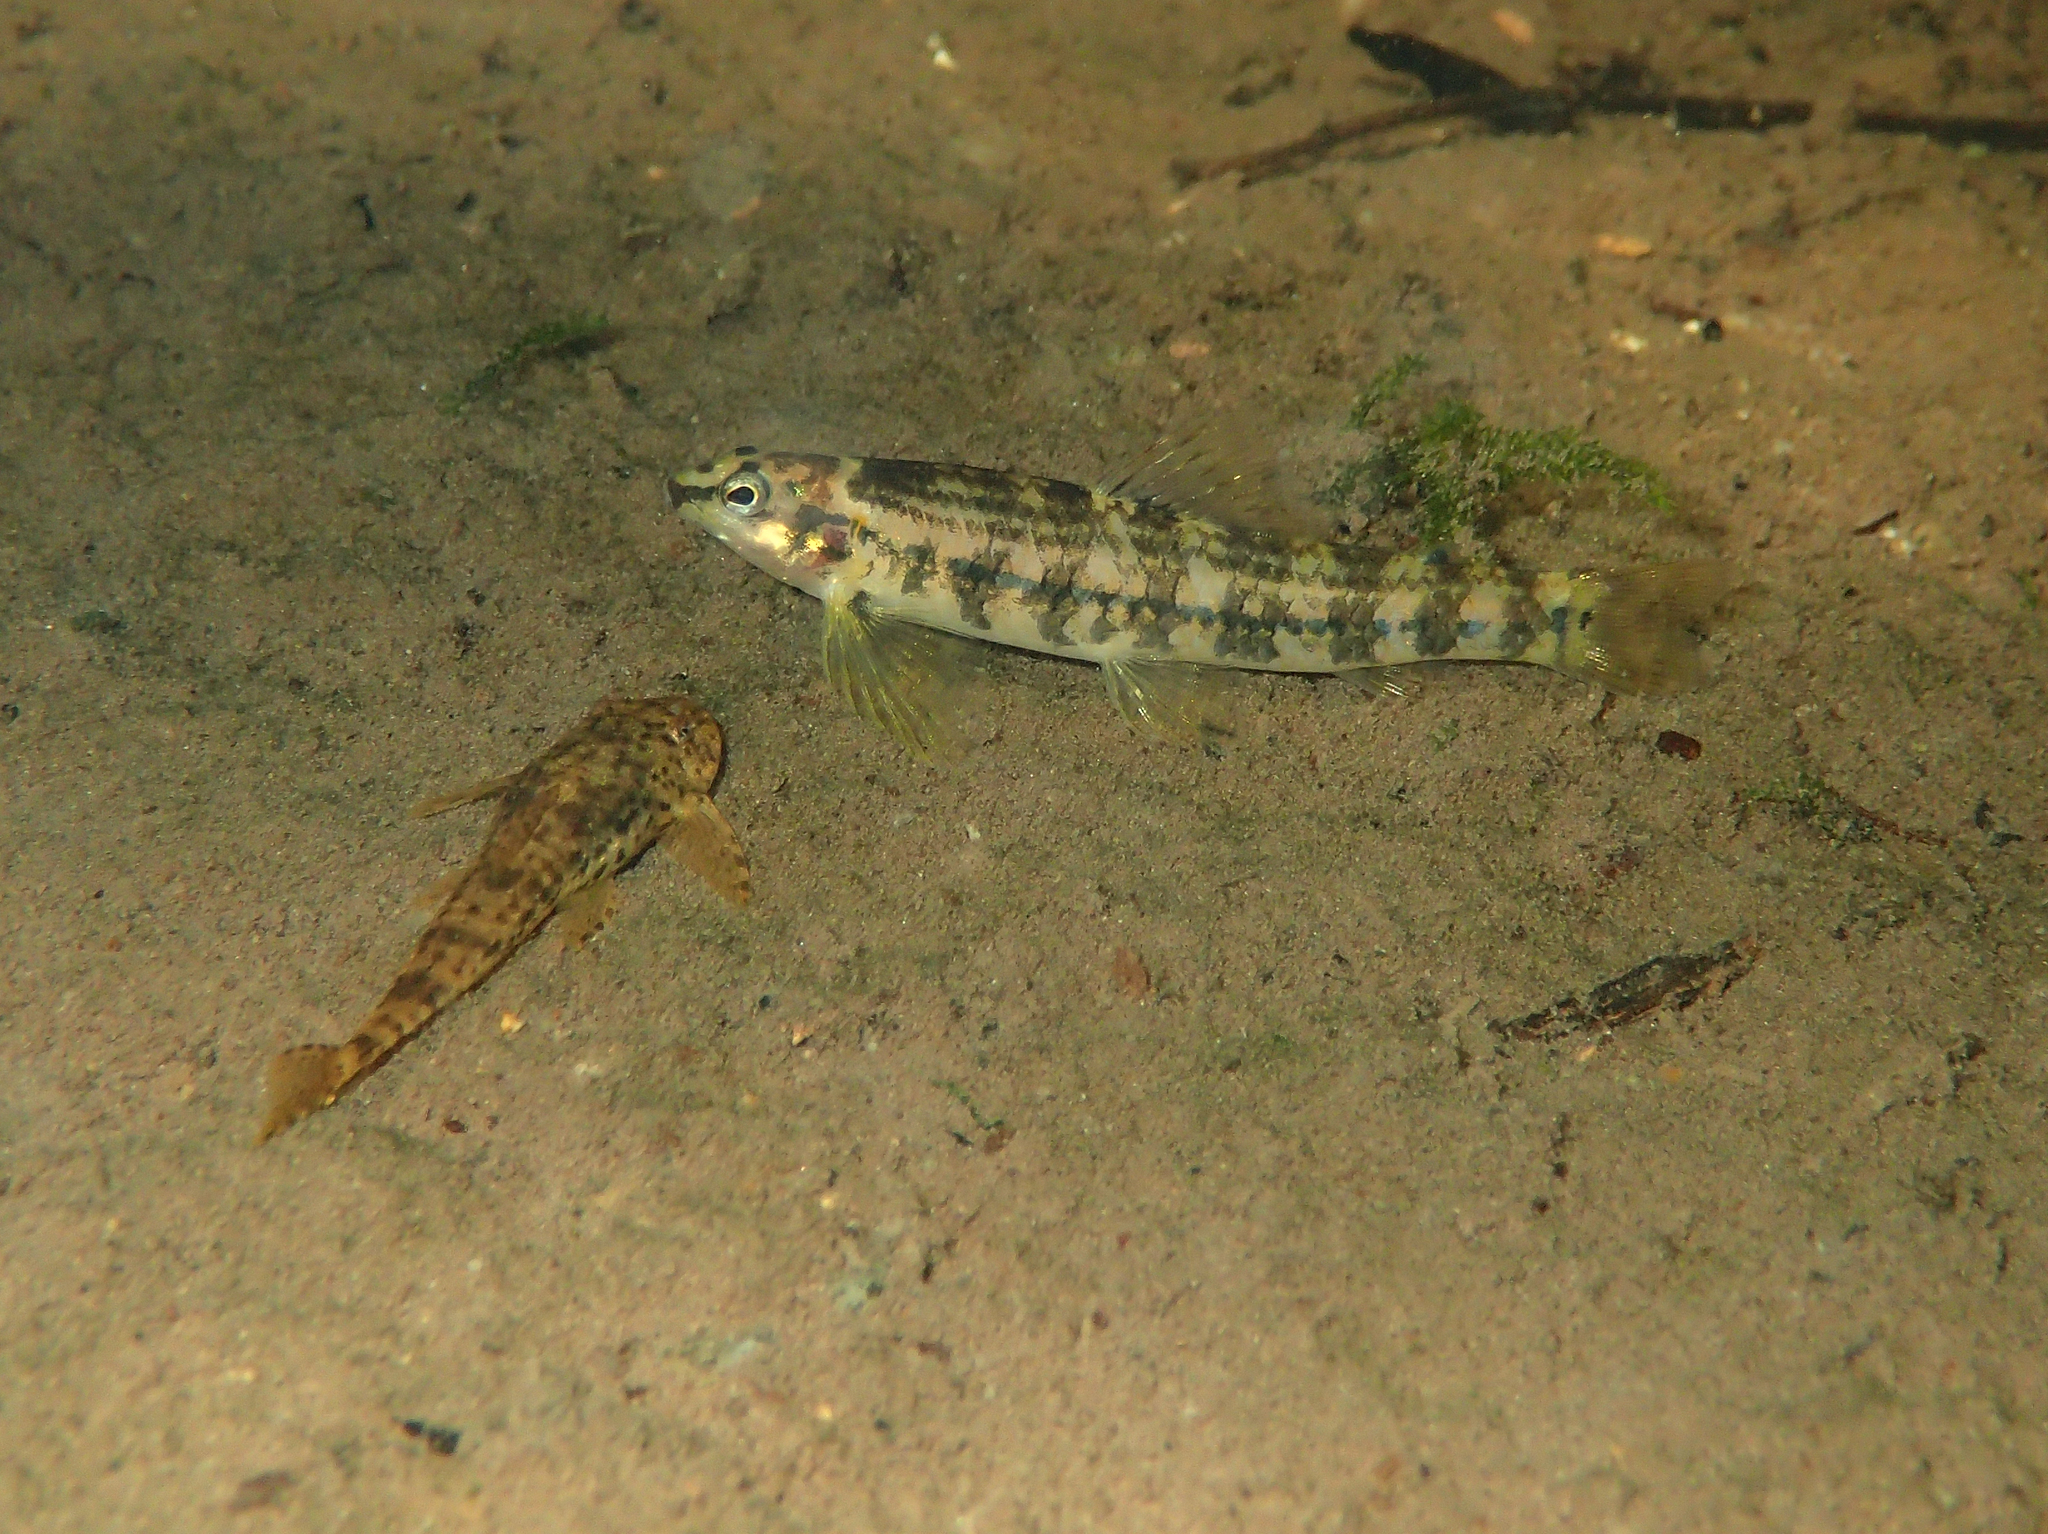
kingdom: Animalia
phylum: Chordata
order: Characiformes
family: Crenuchidae
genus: Characidium
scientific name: Characidium zebra
